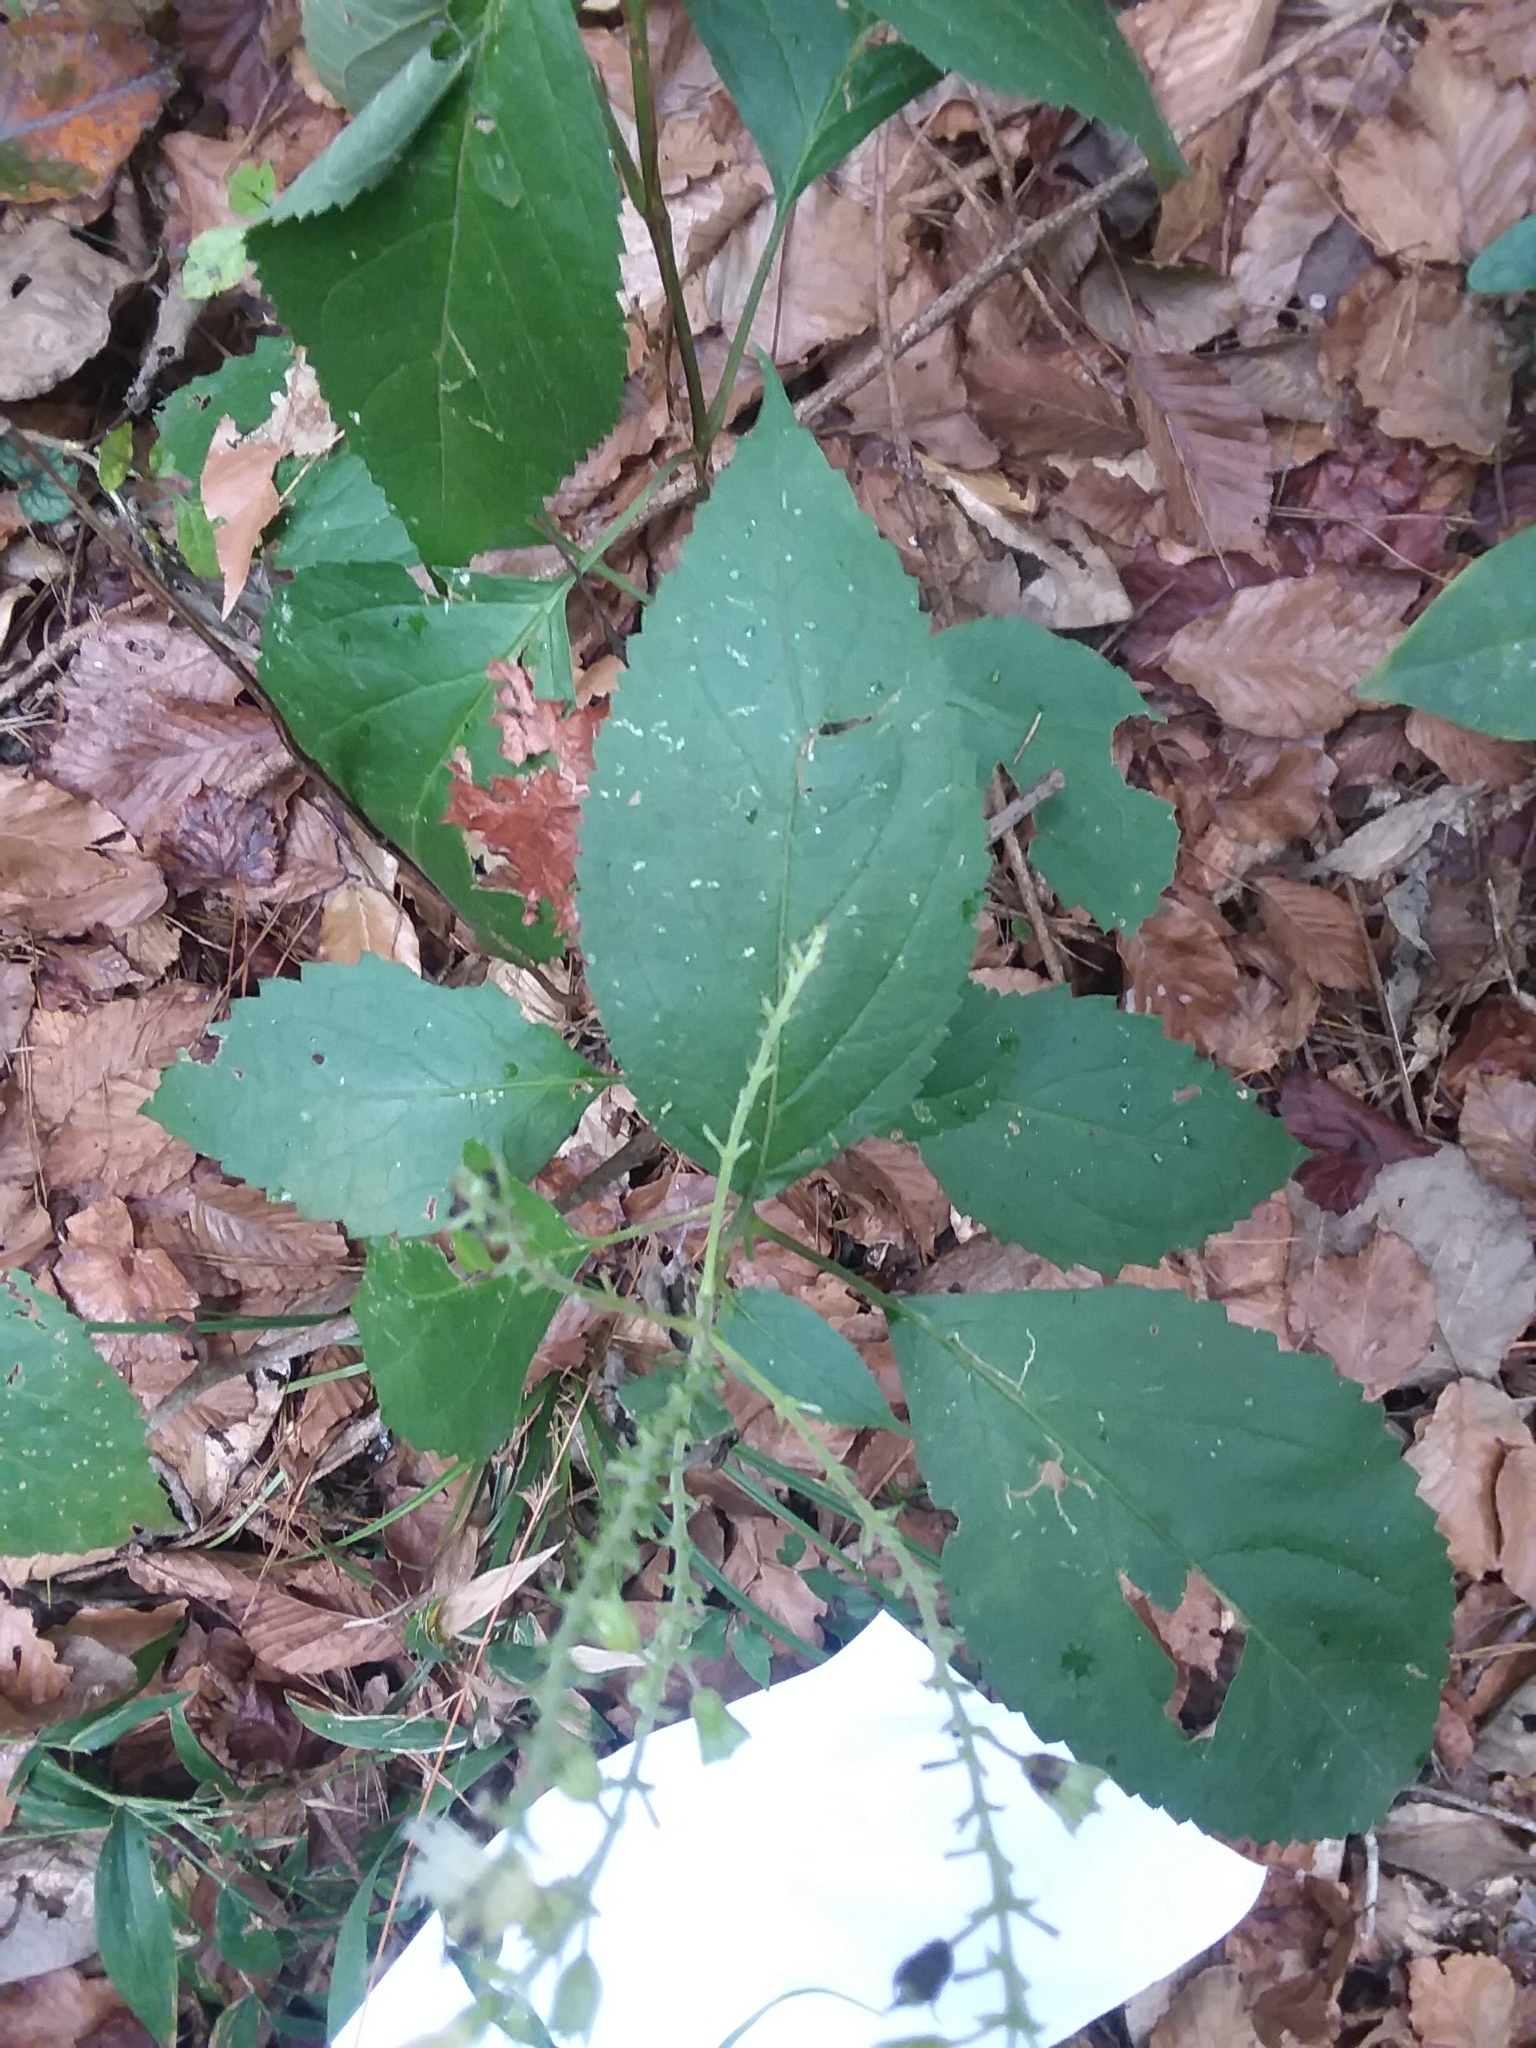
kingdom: Plantae
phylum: Tracheophyta
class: Magnoliopsida
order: Lamiales
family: Lamiaceae
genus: Collinsonia
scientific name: Collinsonia punctata
